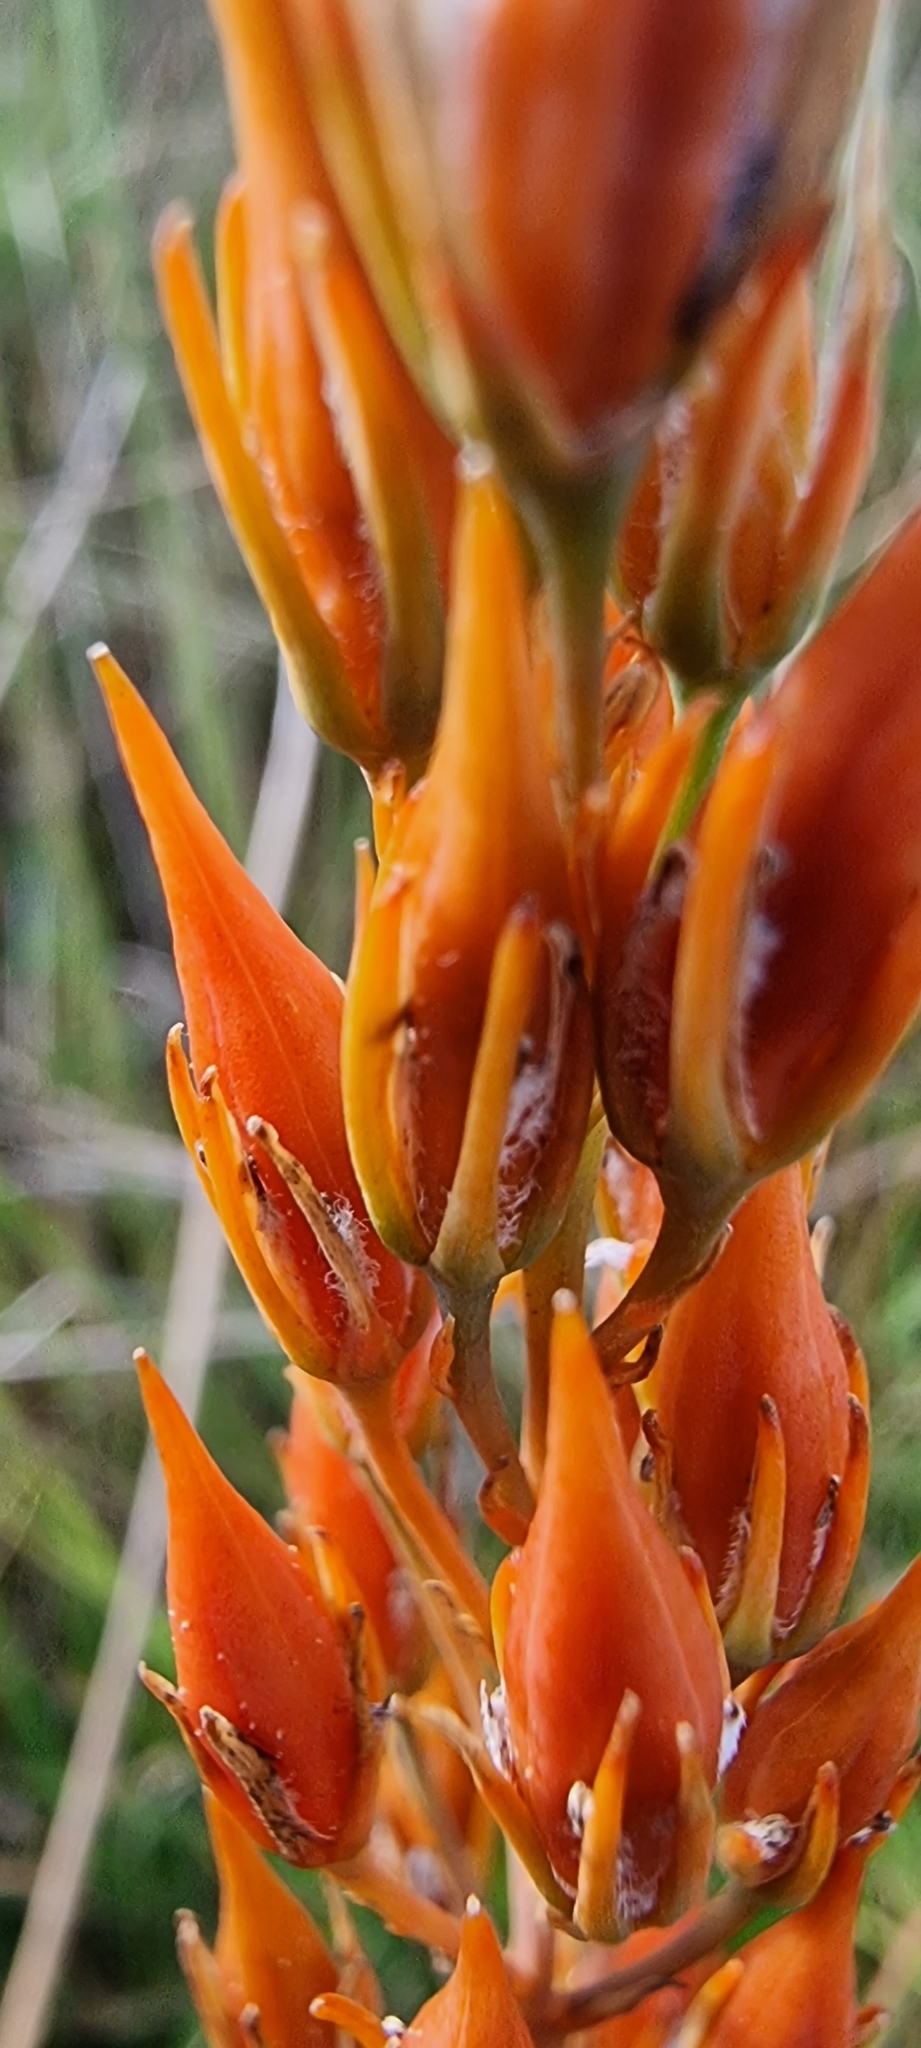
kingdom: Plantae
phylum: Tracheophyta
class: Liliopsida
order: Dioscoreales
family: Nartheciaceae
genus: Narthecium
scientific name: Narthecium ossifragum
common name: Bog asphodel
